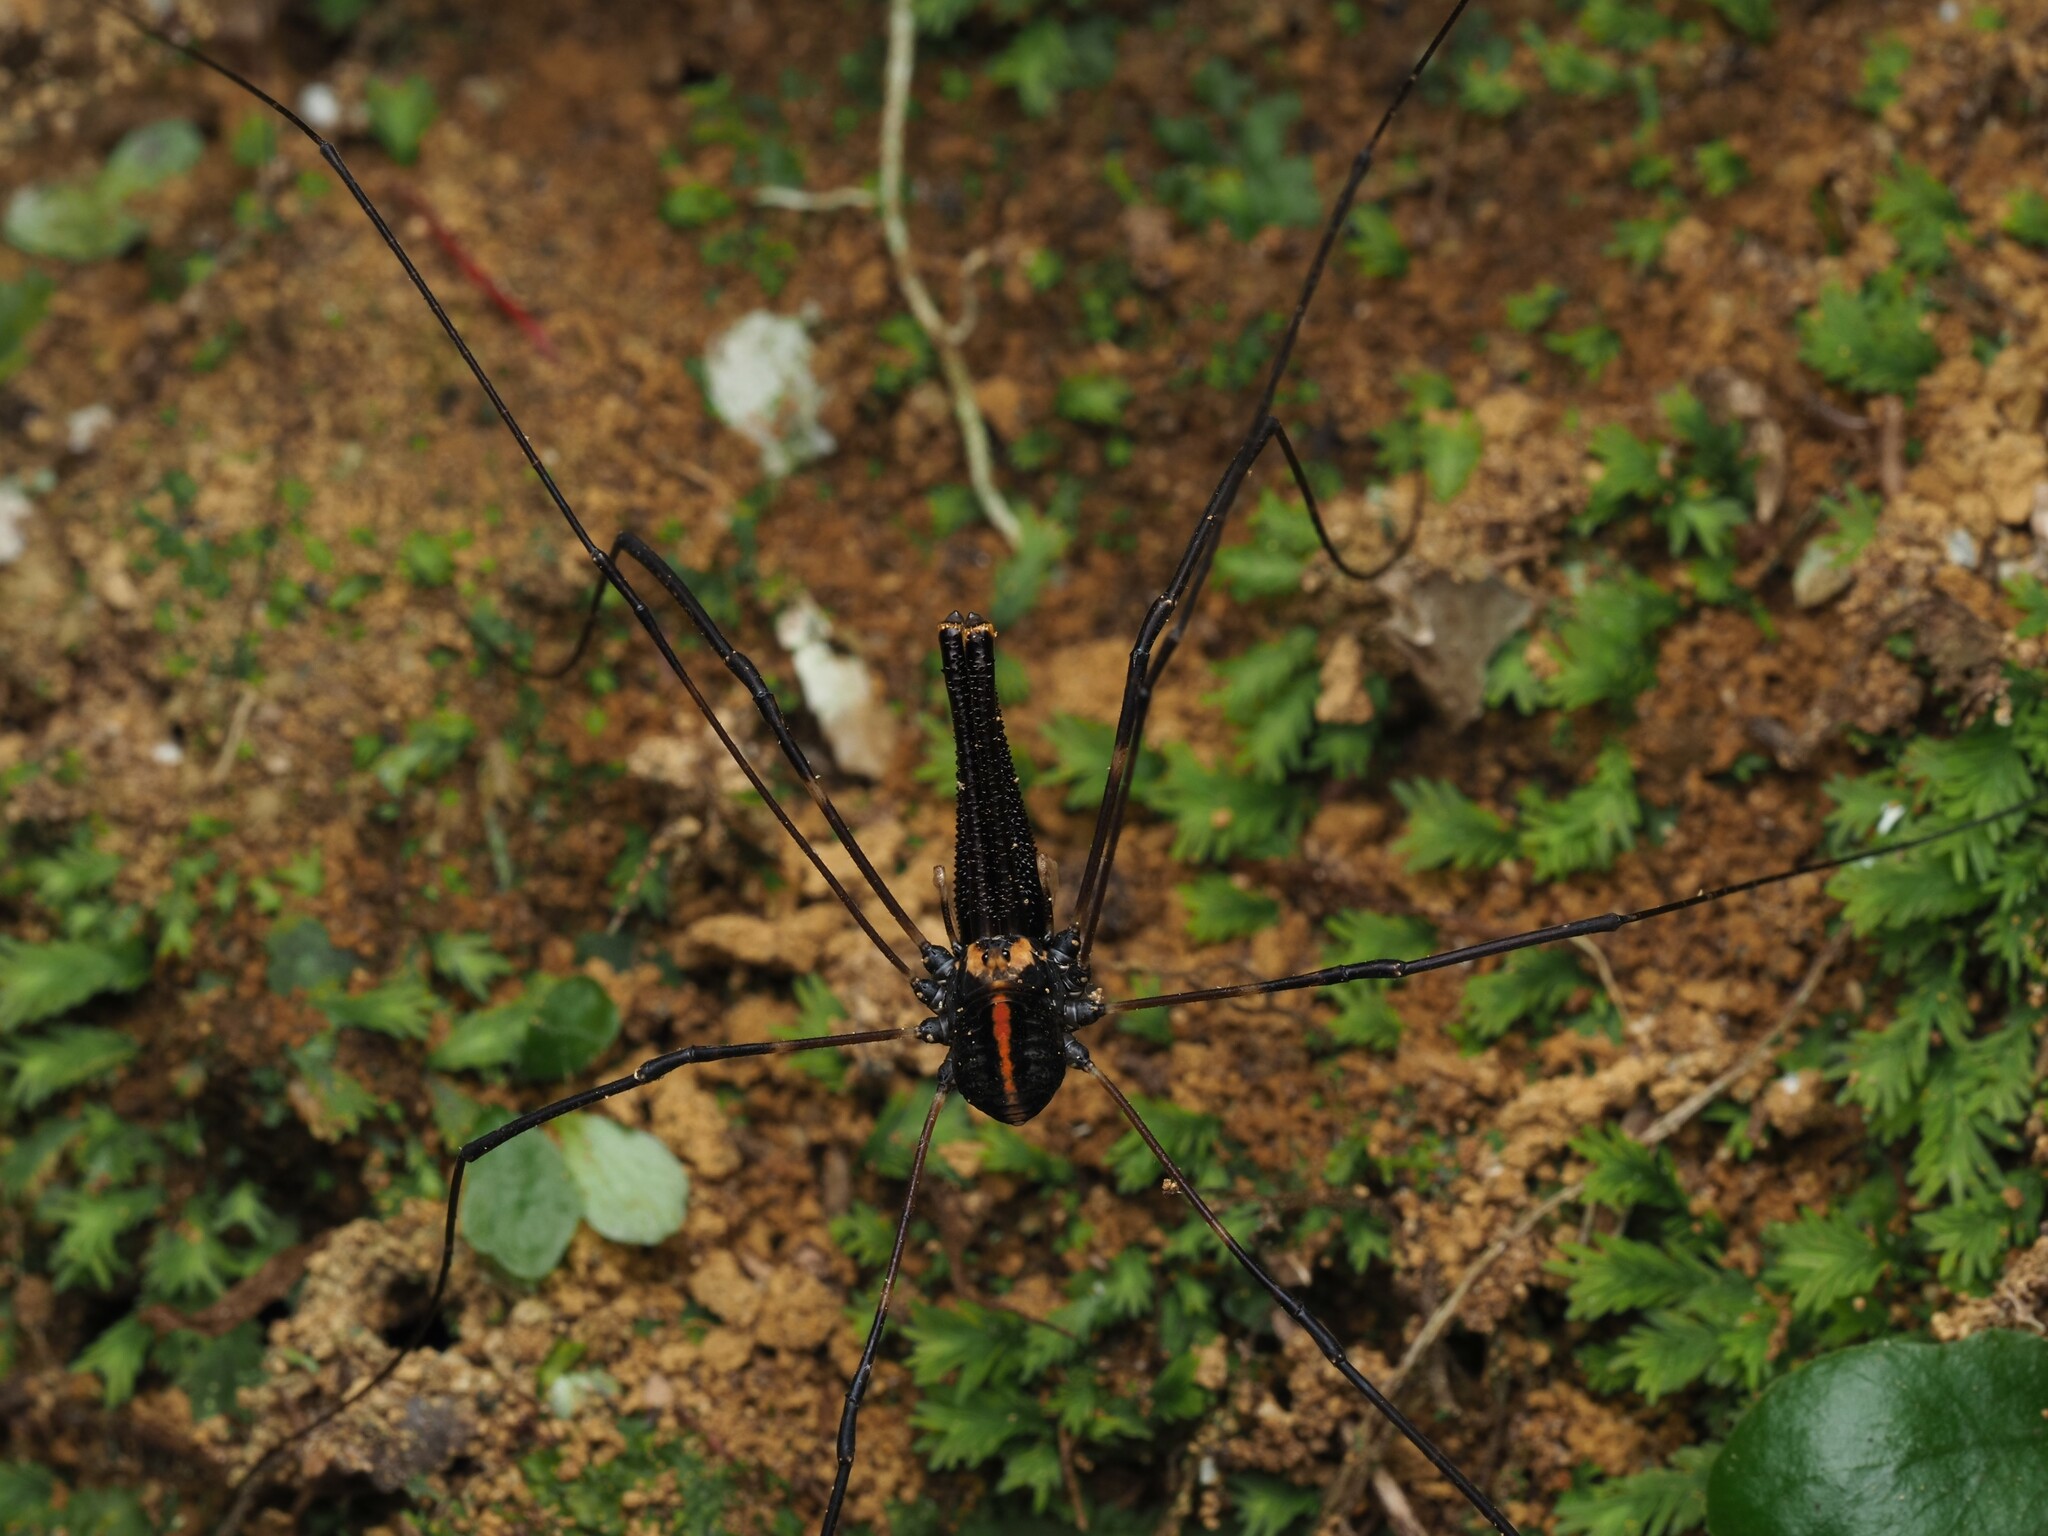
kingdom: Animalia
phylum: Arthropoda
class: Arachnida
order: Opiliones
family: Neopilionidae
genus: Forsteropsalis
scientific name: Forsteropsalis pureora
